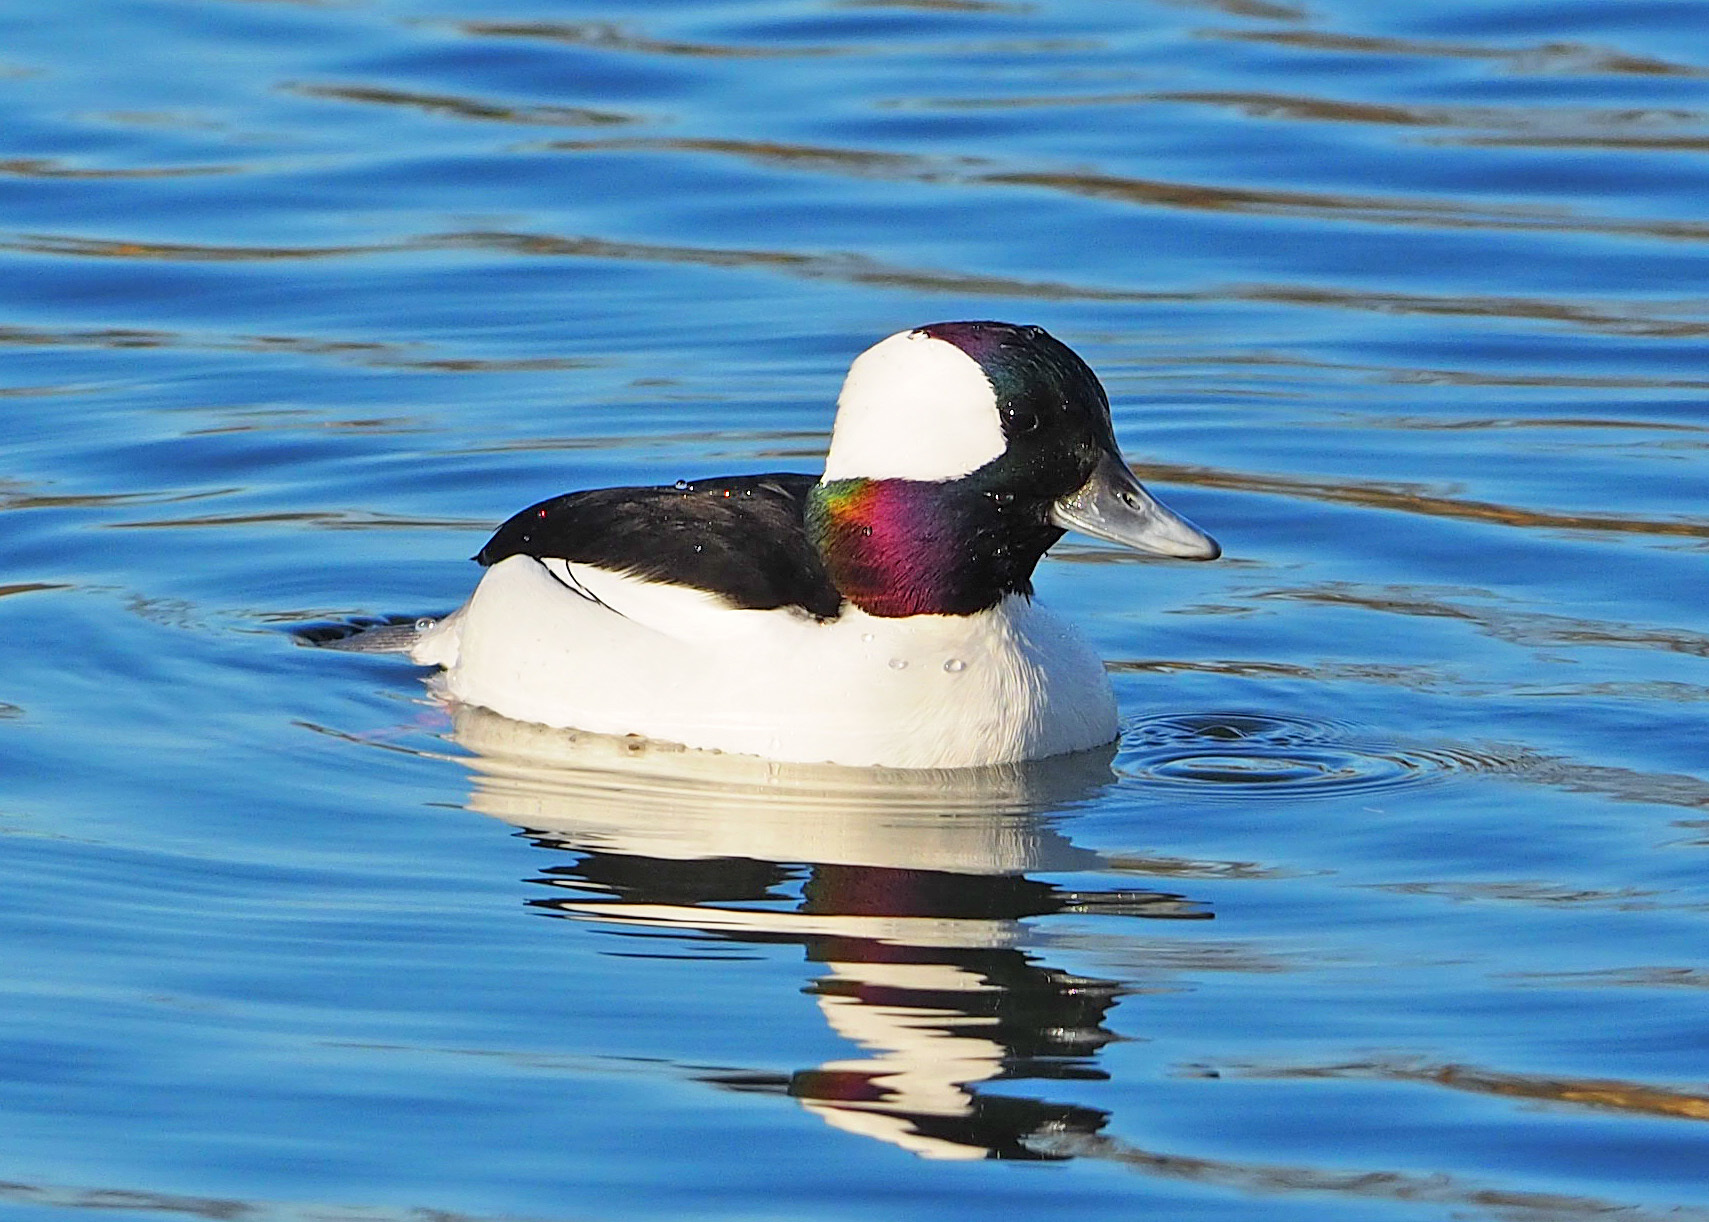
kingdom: Animalia
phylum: Chordata
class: Aves
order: Anseriformes
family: Anatidae
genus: Bucephala
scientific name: Bucephala albeola
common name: Bufflehead
